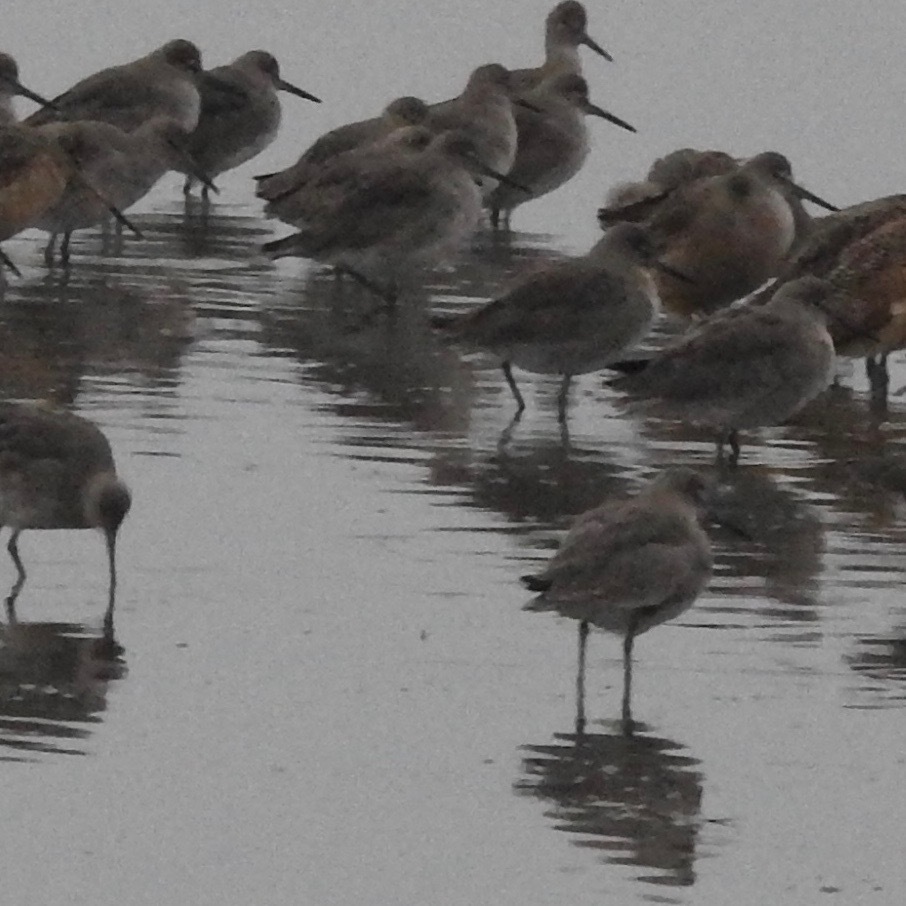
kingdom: Animalia
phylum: Chordata
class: Aves
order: Charadriiformes
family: Scolopacidae
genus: Tringa
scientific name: Tringa semipalmata
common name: Willet
